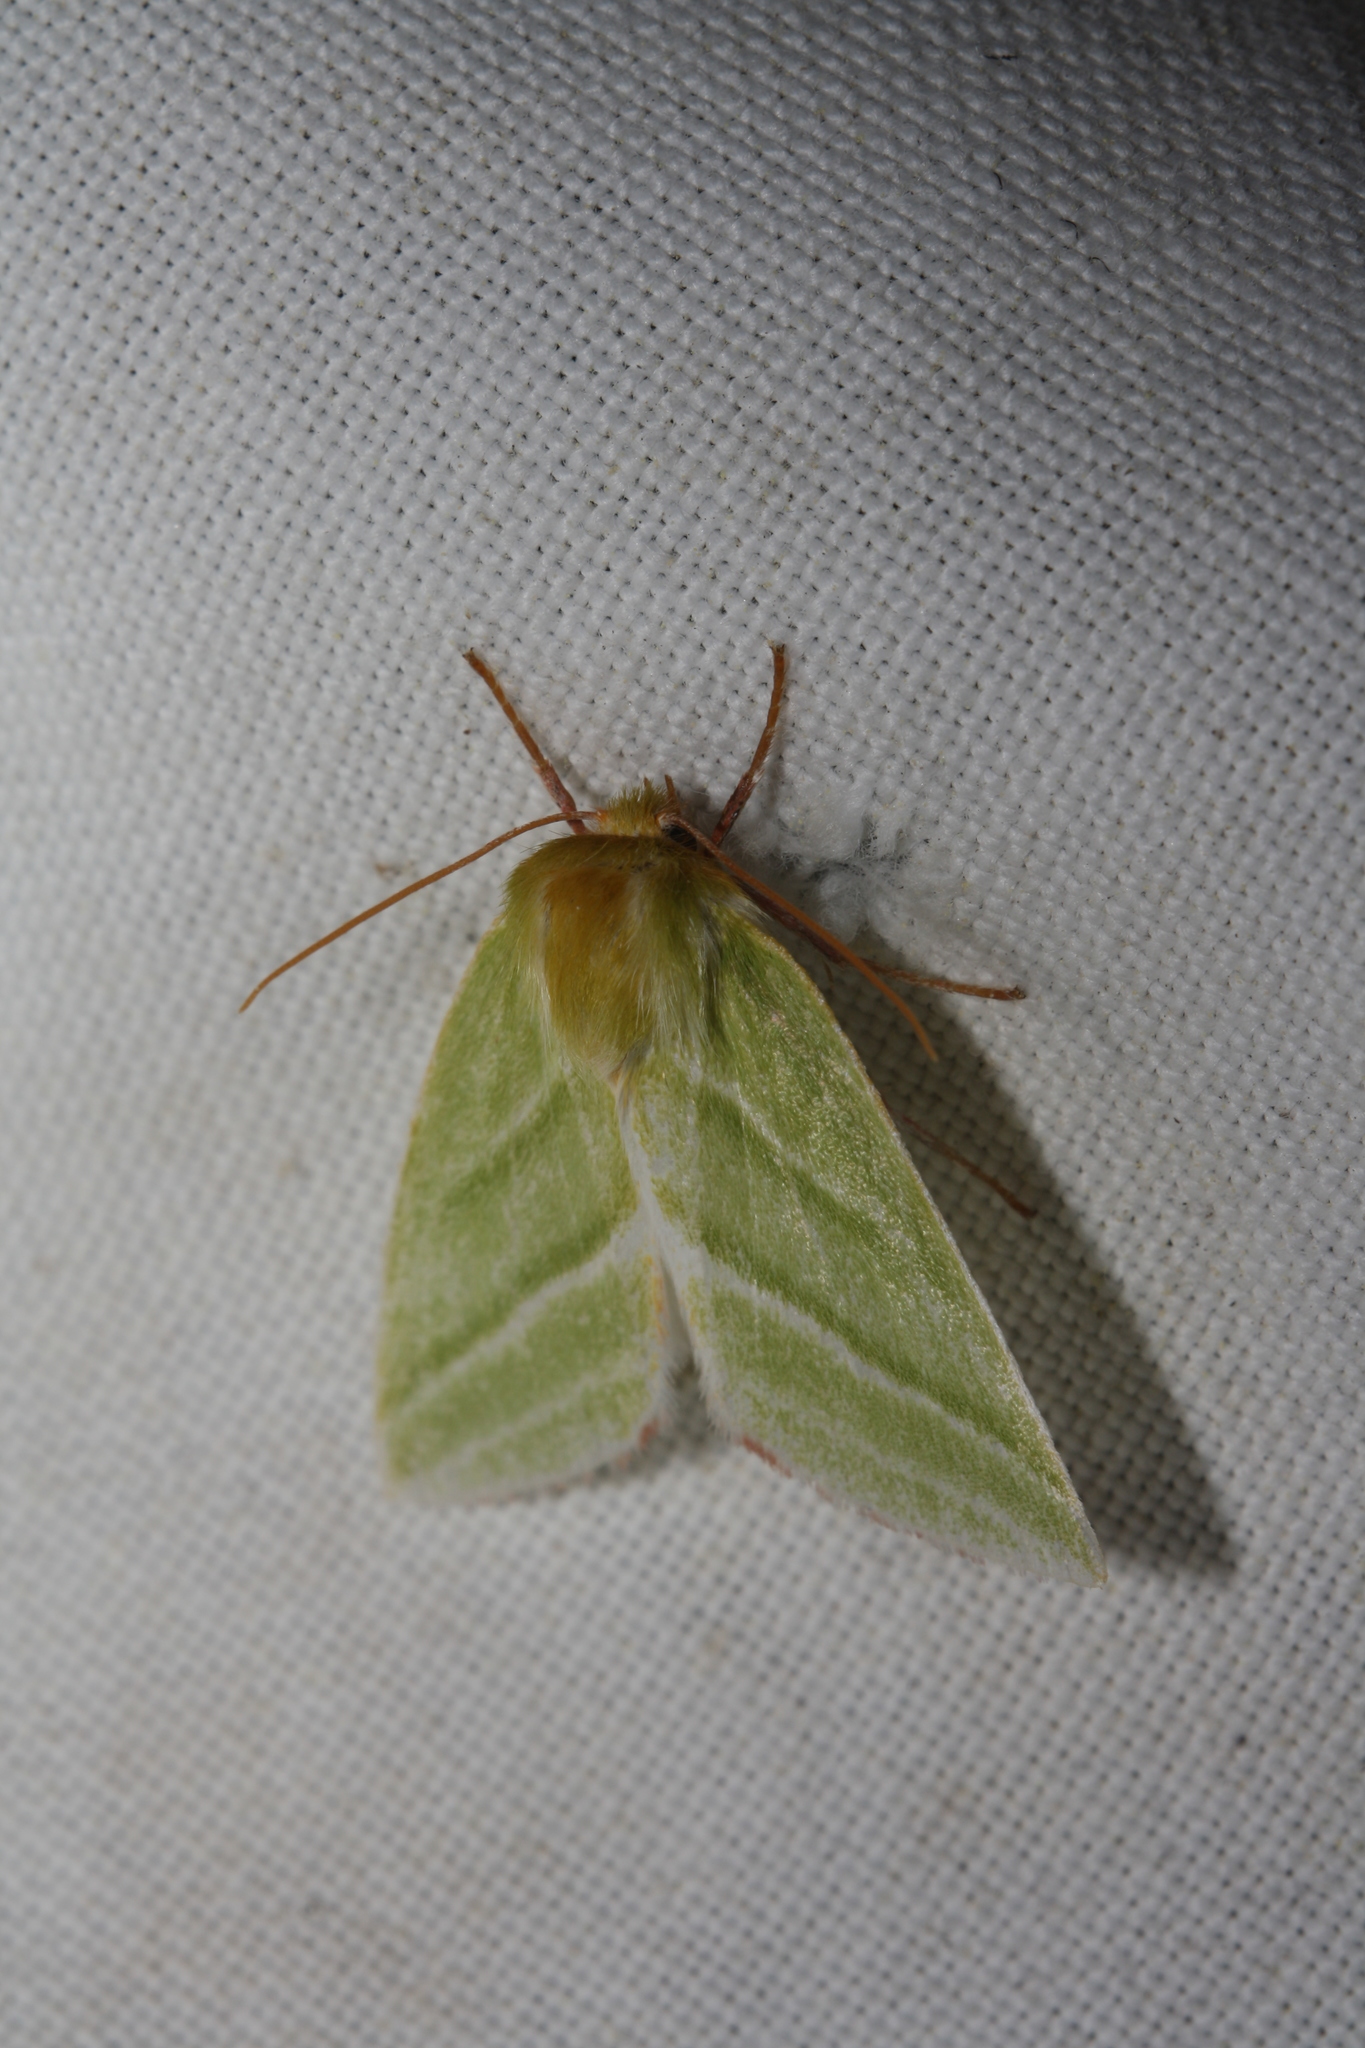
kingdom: Animalia
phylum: Arthropoda
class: Insecta
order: Lepidoptera
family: Nolidae
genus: Pseudoips
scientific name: Pseudoips prasinana
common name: Green silver-lines
